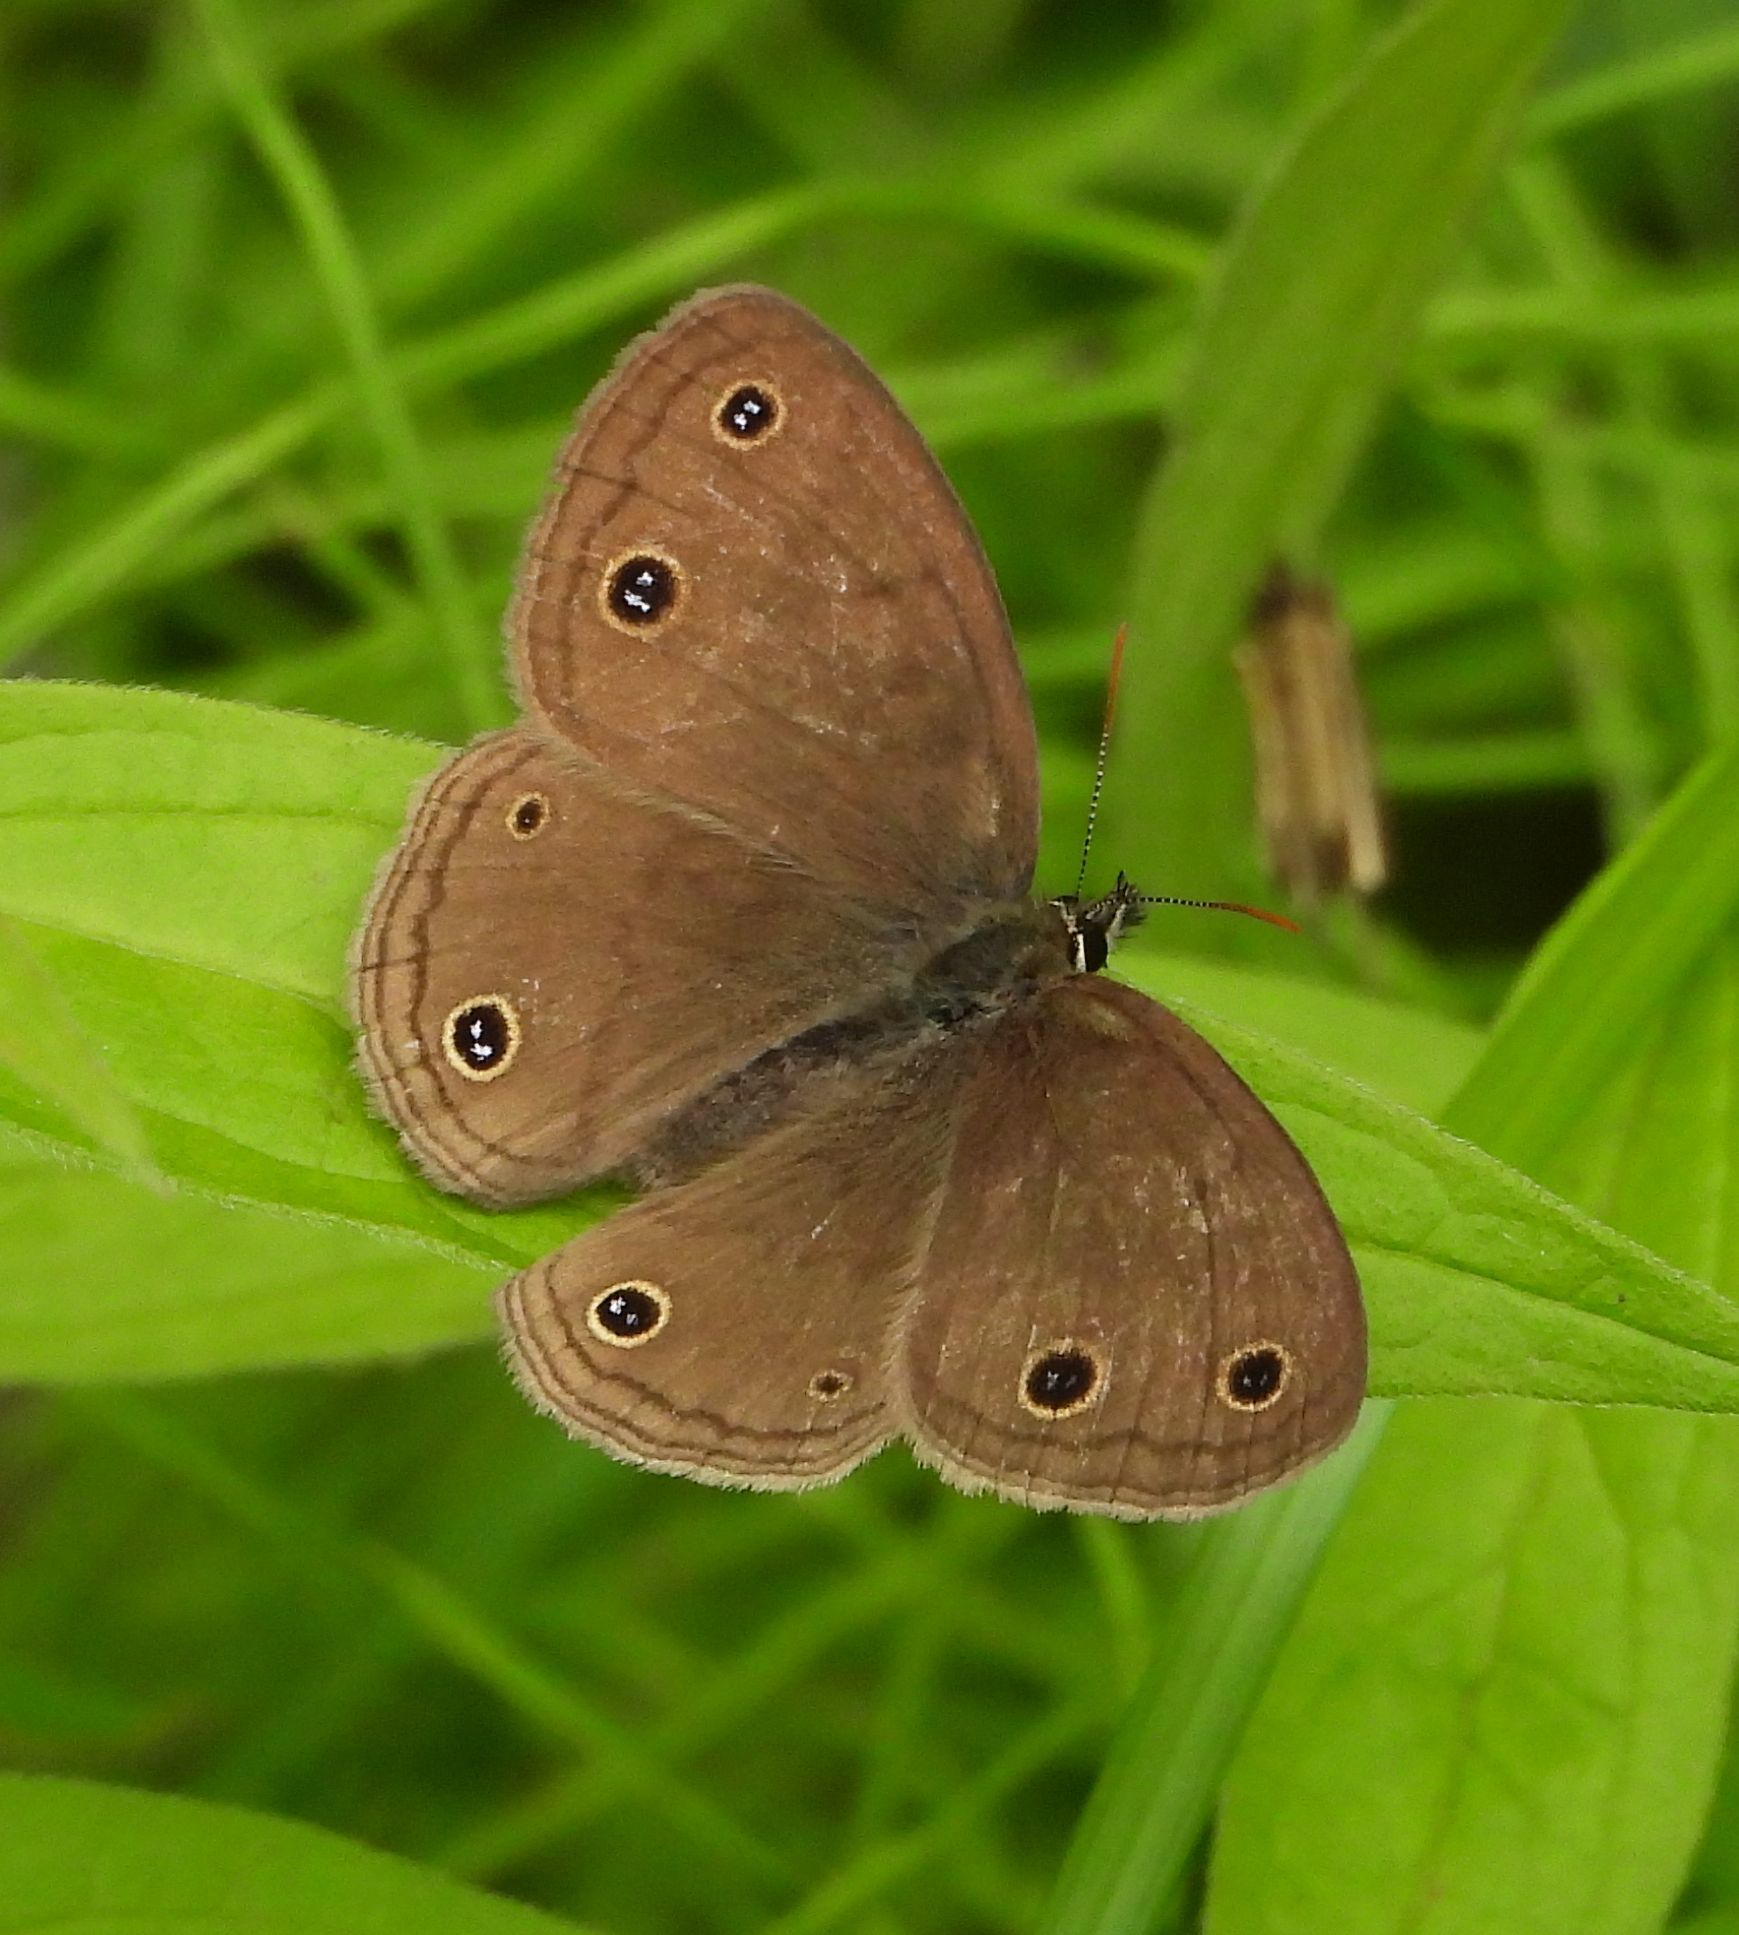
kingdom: Animalia
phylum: Arthropoda
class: Insecta
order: Lepidoptera
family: Nymphalidae
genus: Euptychia
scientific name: Euptychia cymela
